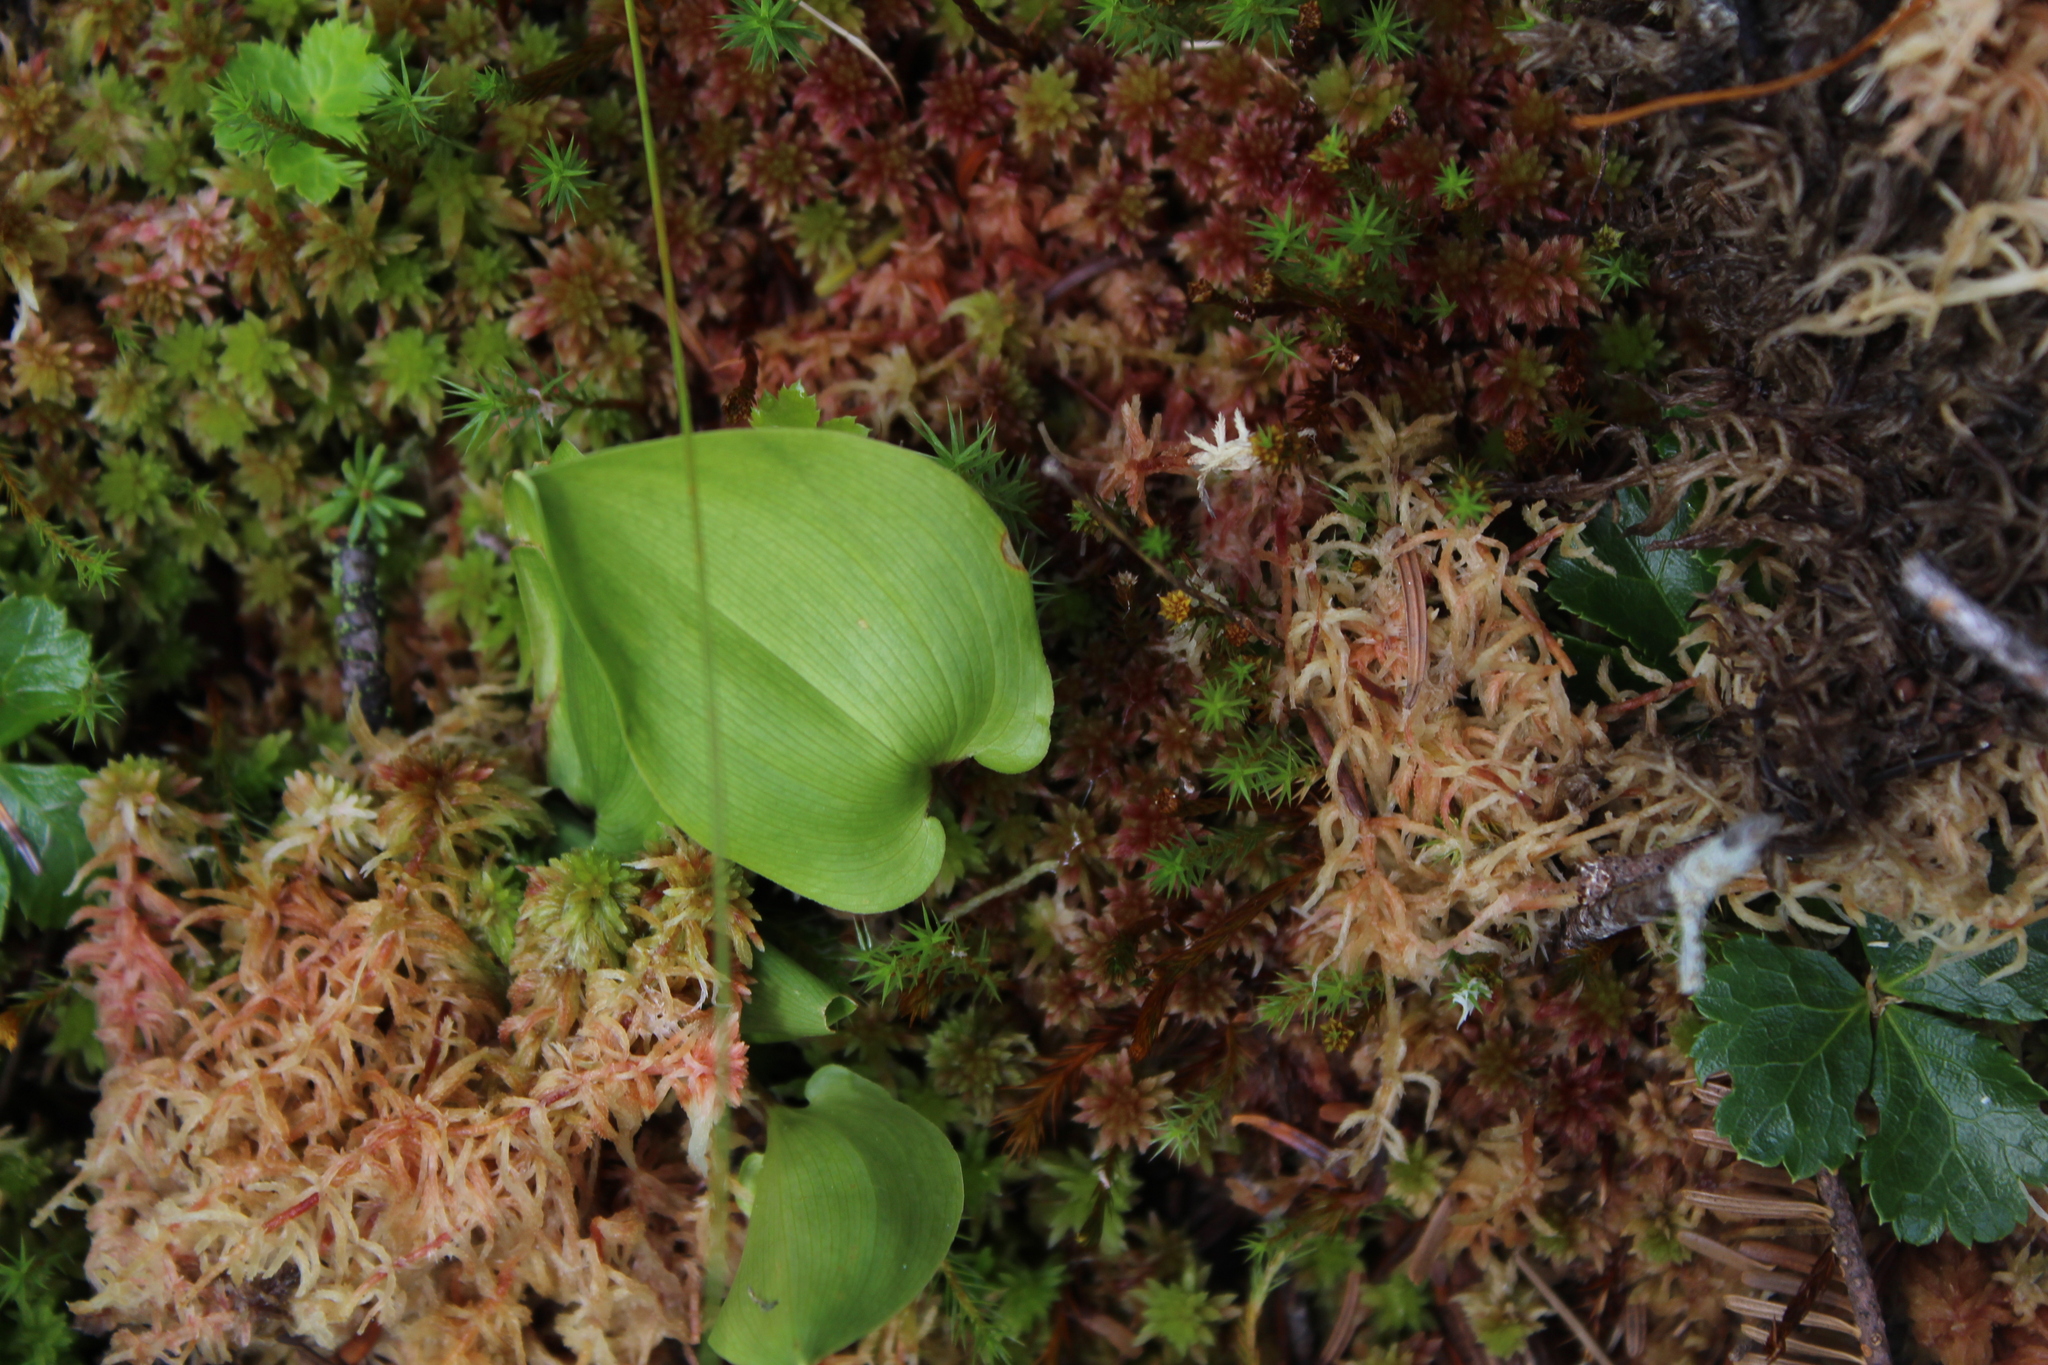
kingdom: Plantae
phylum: Tracheophyta
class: Liliopsida
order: Asparagales
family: Asparagaceae
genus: Maianthemum
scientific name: Maianthemum canadense
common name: False lily-of-the-valley
